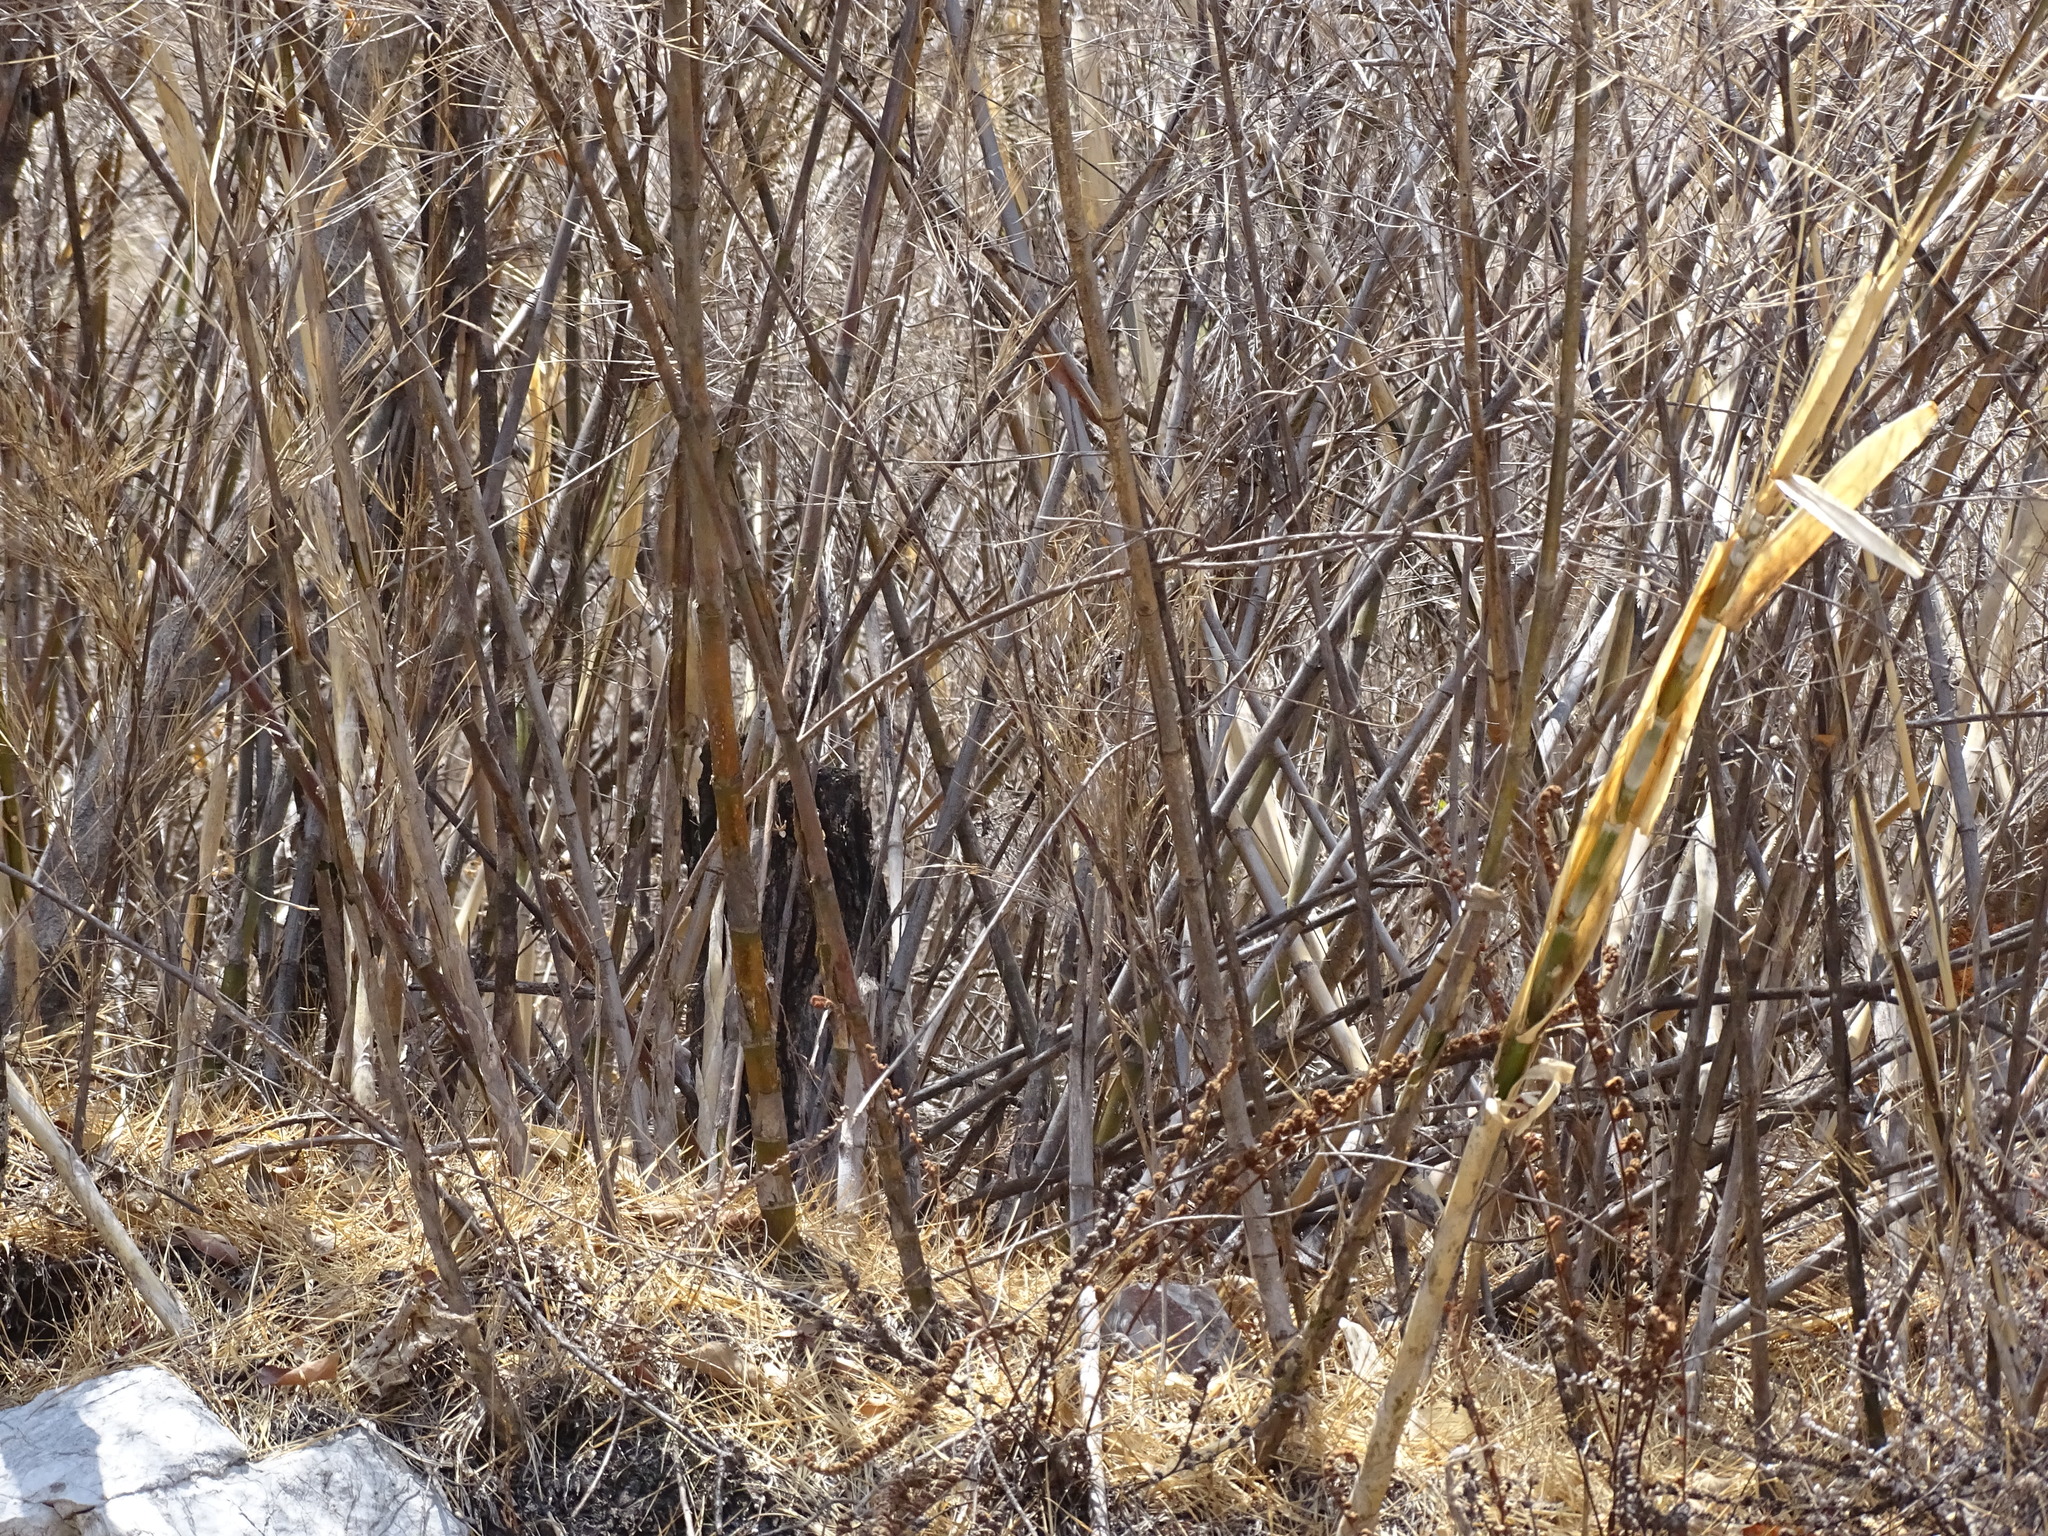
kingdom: Plantae
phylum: Tracheophyta
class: Liliopsida
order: Poales
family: Poaceae
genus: Otatea
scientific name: Otatea acuminata
